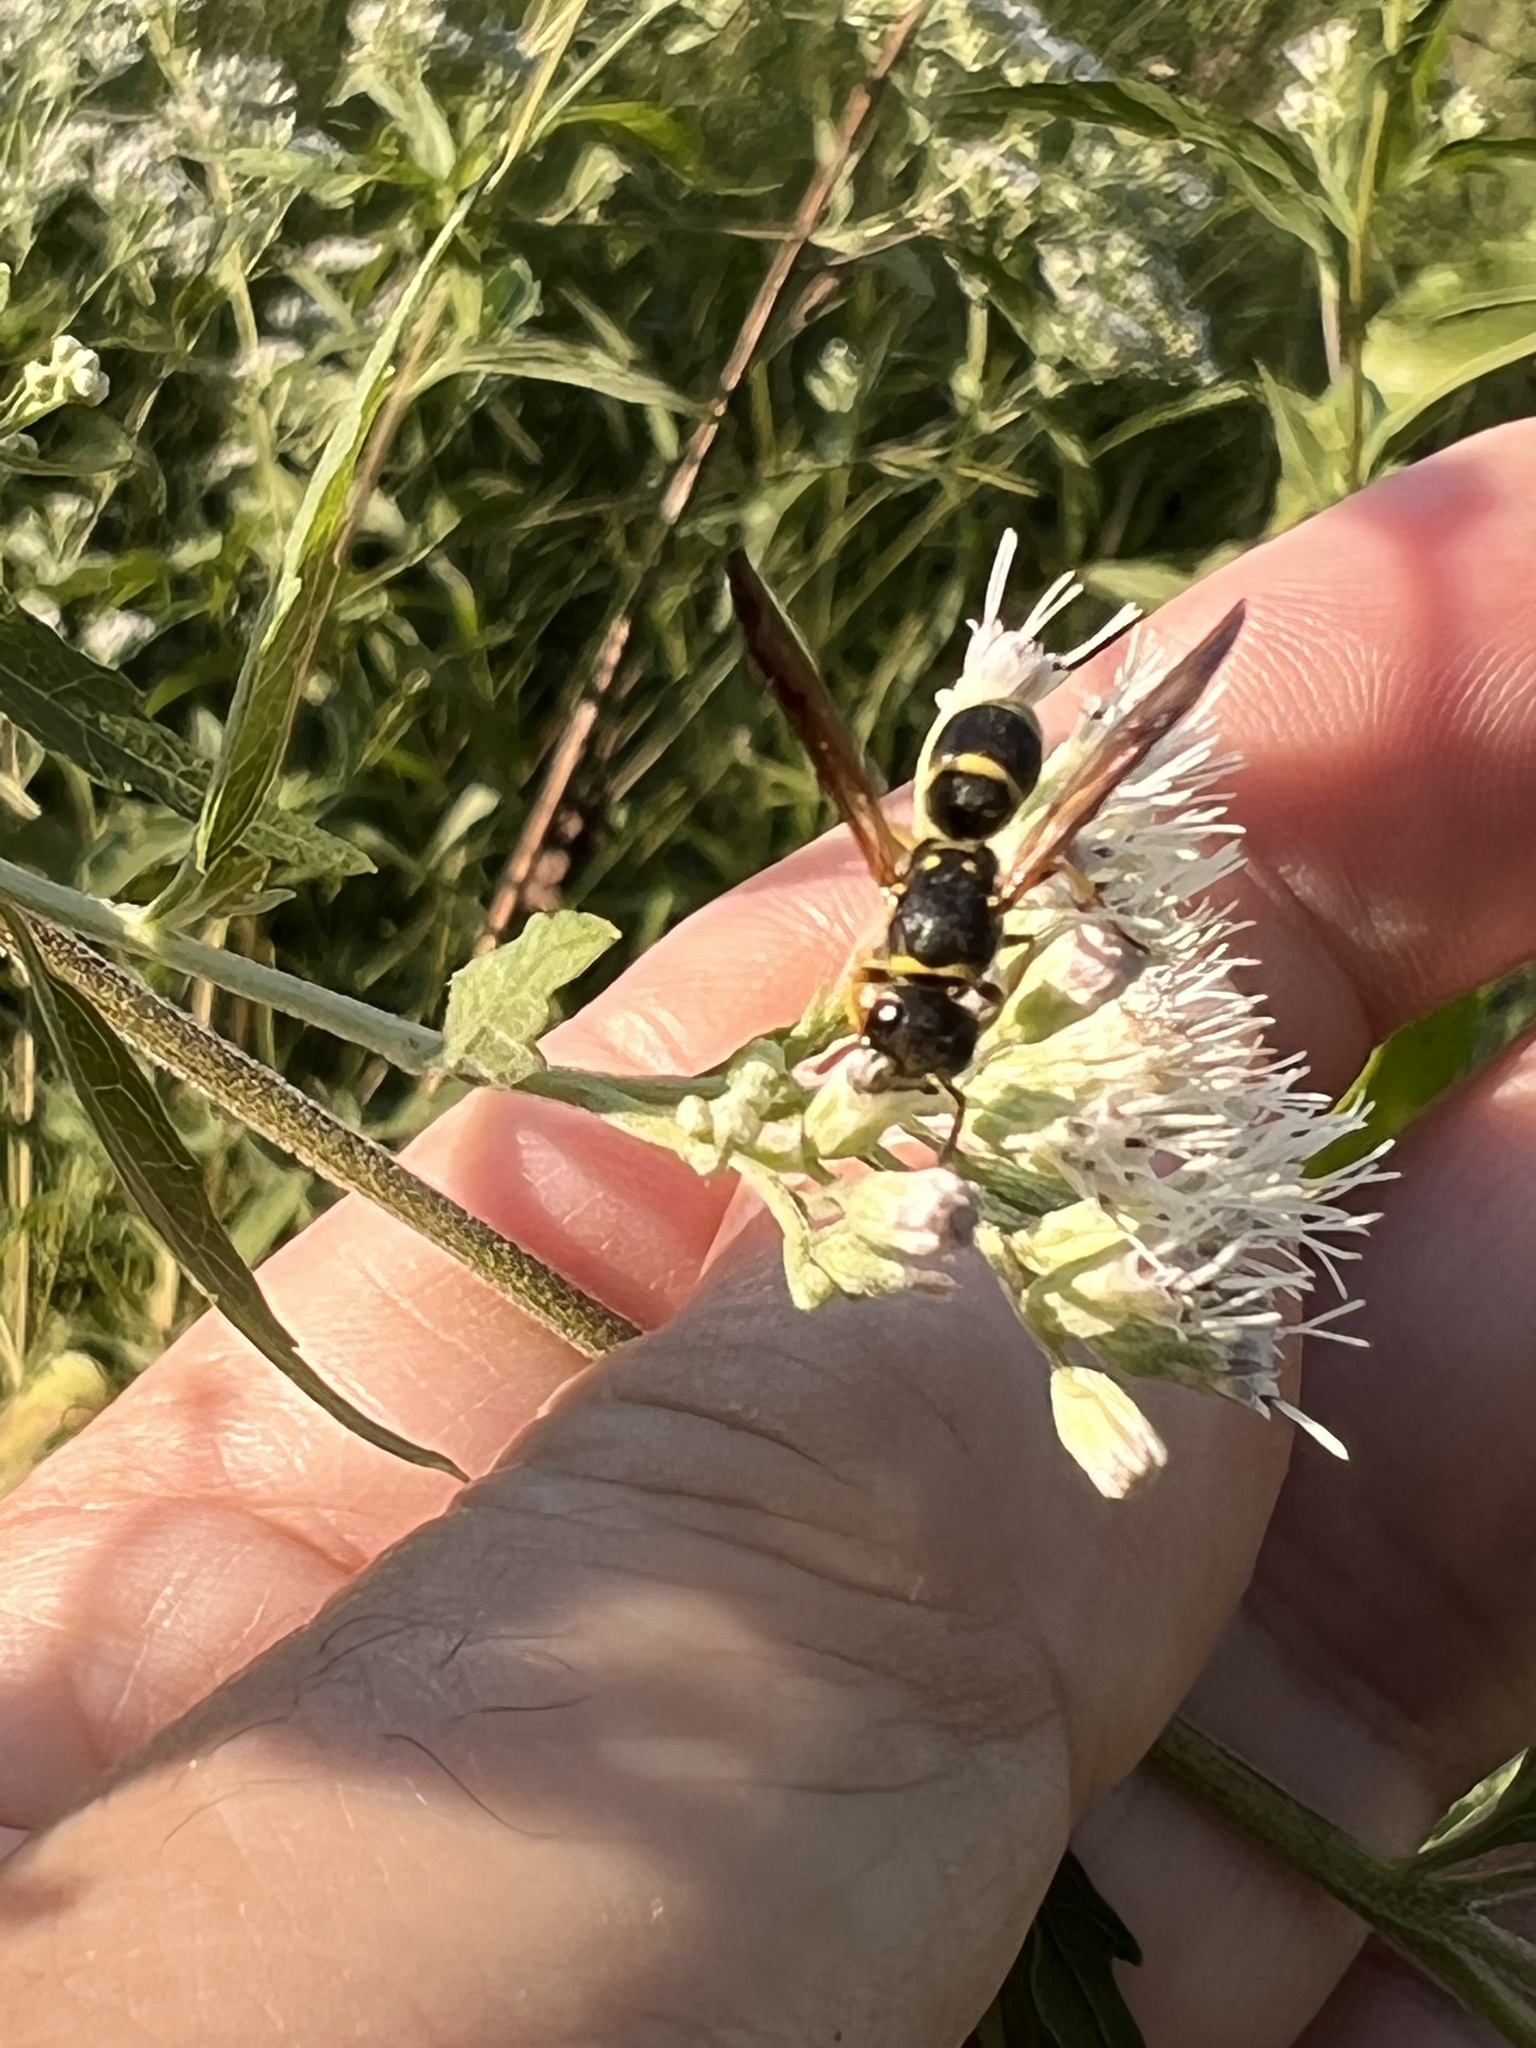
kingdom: Animalia
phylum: Arthropoda
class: Insecta
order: Hymenoptera
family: Vespidae
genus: Ancistrocerus
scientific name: Ancistrocerus adiabatus
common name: Bramble mason wasp
